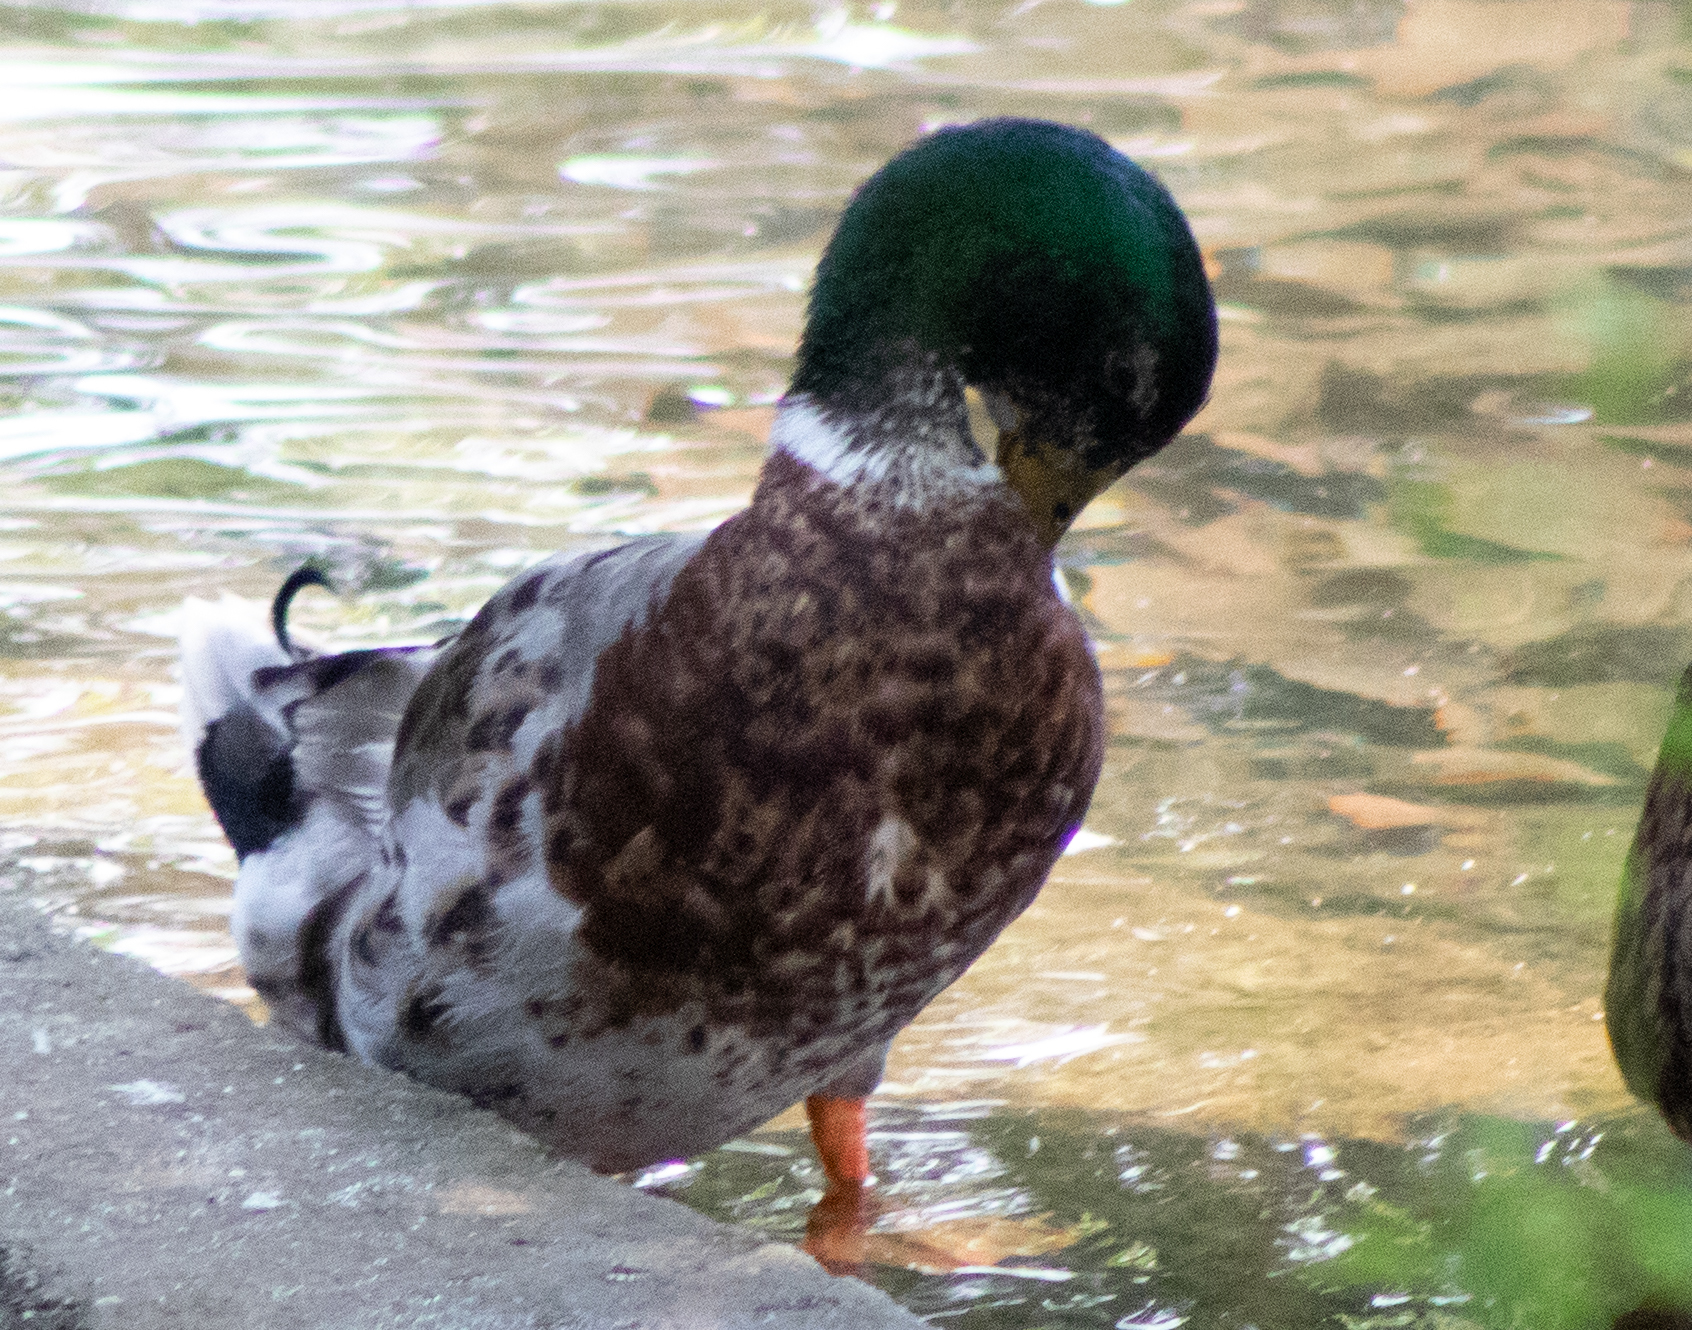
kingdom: Animalia
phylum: Chordata
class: Aves
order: Anseriformes
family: Anatidae
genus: Anas
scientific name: Anas platyrhynchos
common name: Mallard
